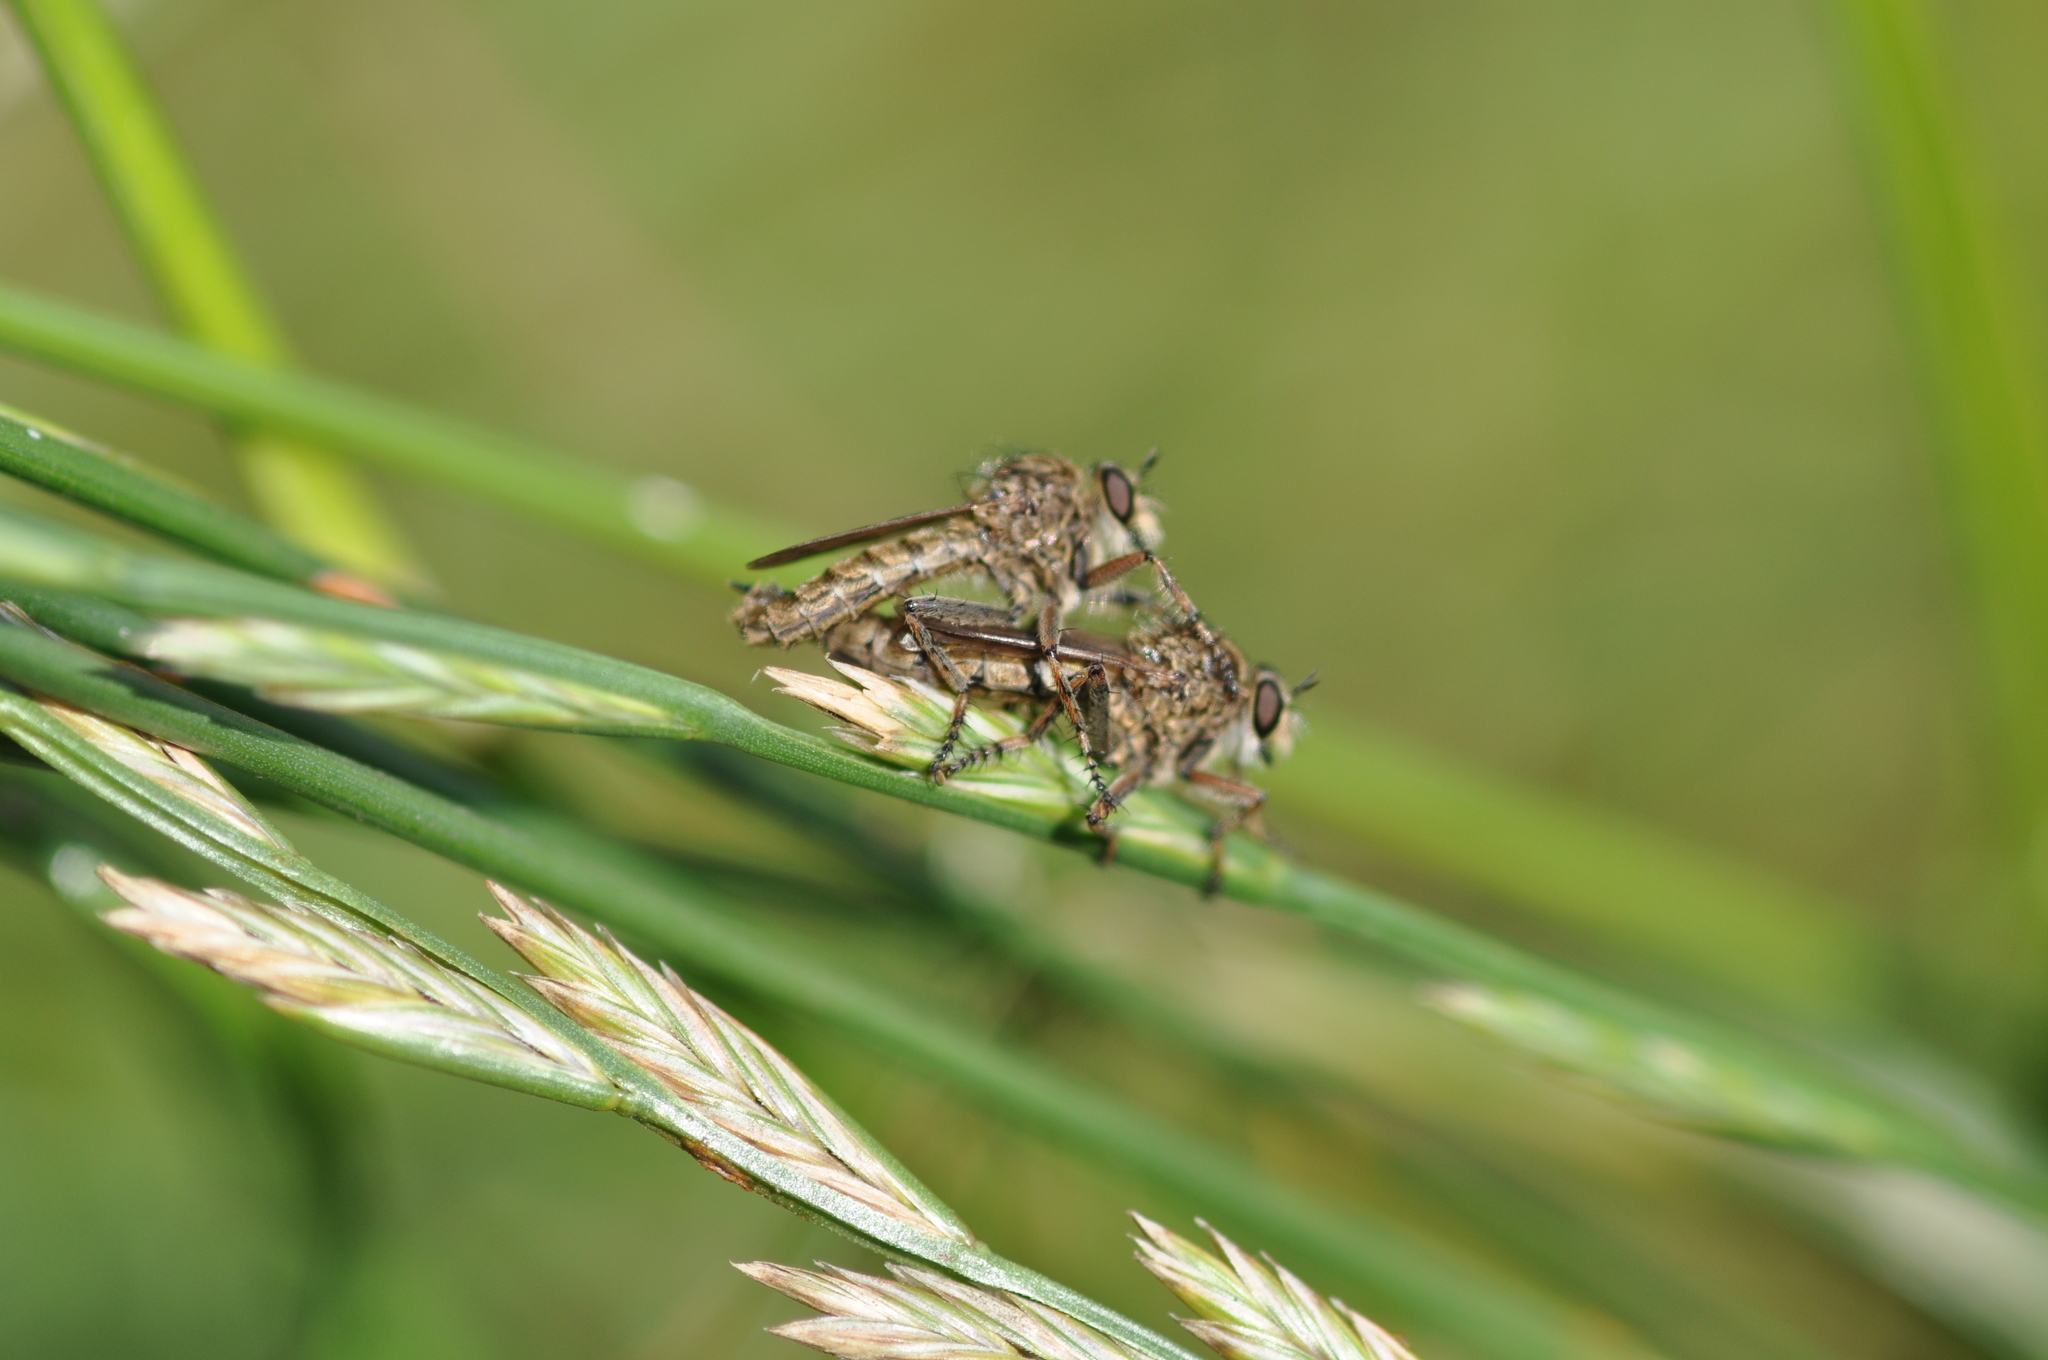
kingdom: Animalia
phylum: Arthropoda
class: Insecta
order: Diptera
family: Asilidae
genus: Epitriptus
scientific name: Epitriptus cingulatus
